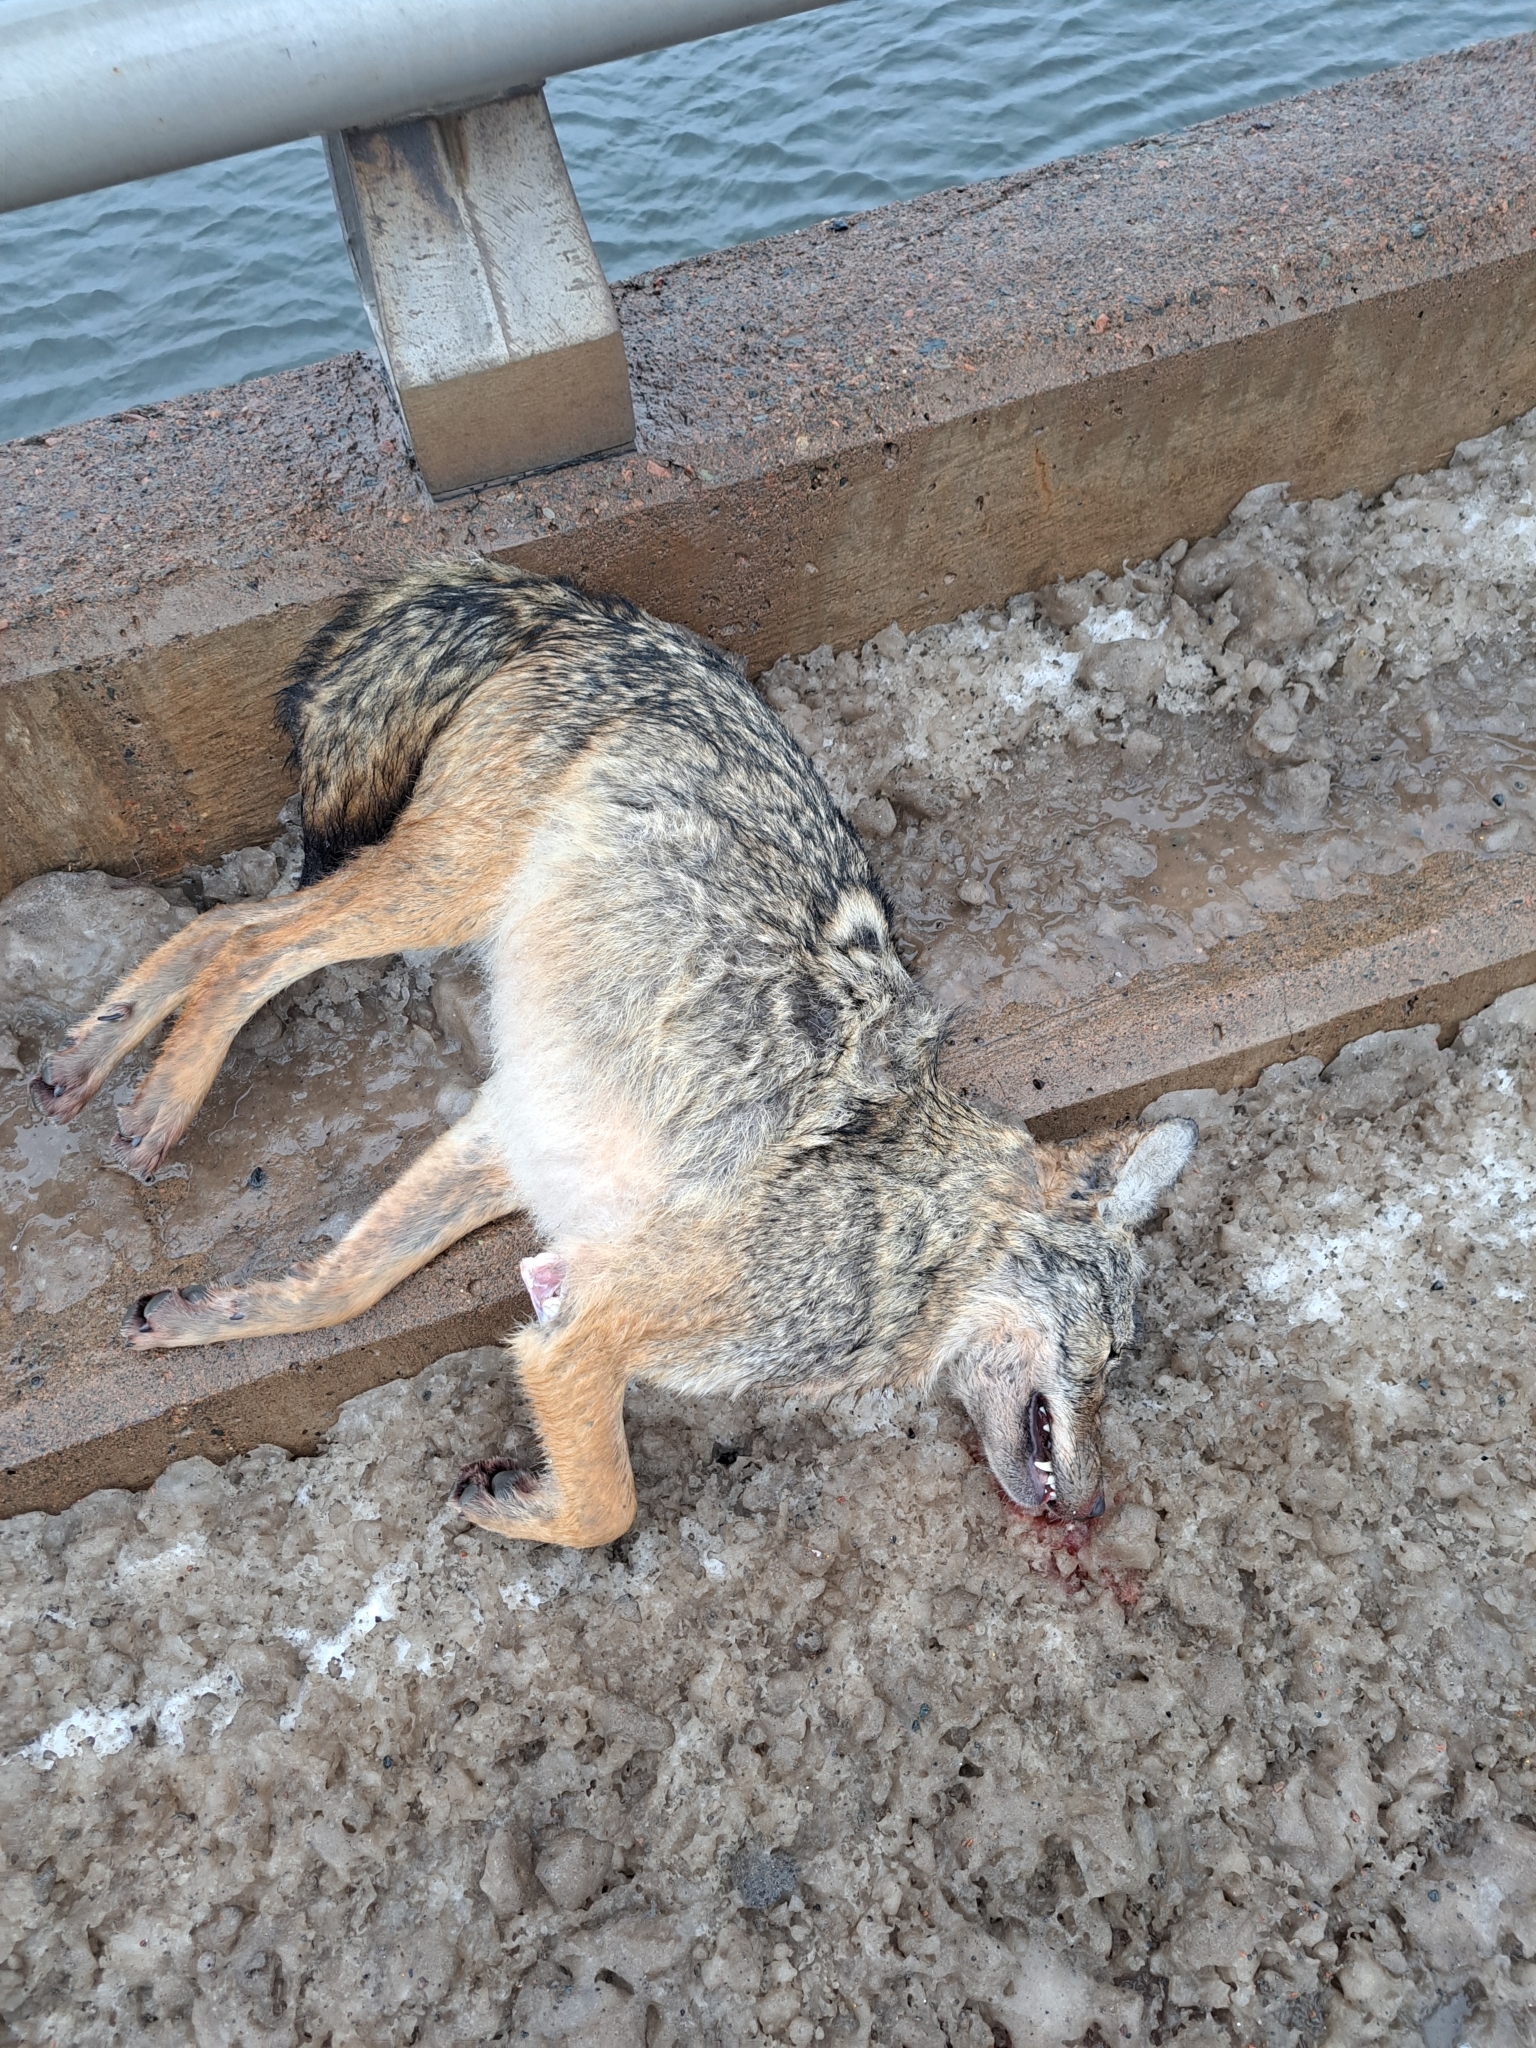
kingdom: Animalia
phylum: Chordata
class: Mammalia
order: Carnivora
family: Canidae
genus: Canis
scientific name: Canis latrans
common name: Coyote
